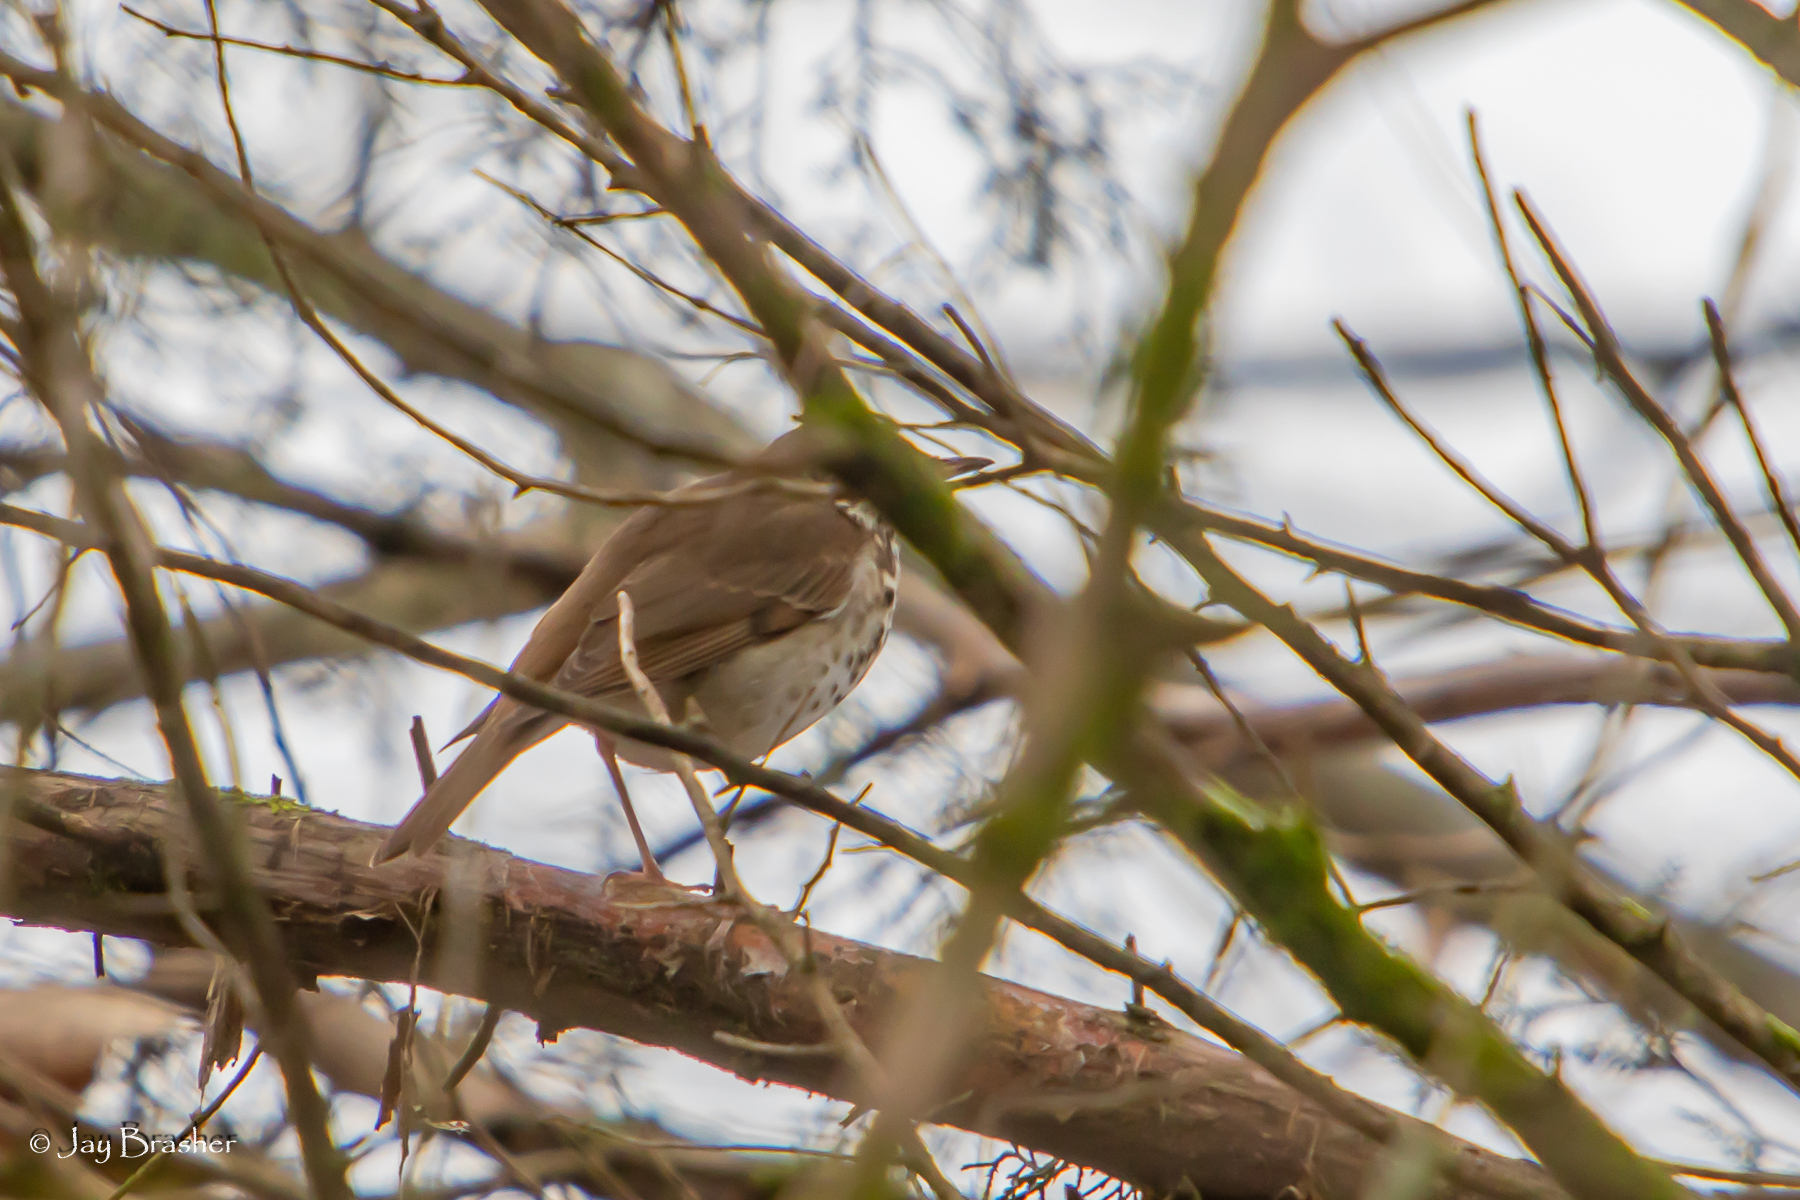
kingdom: Animalia
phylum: Chordata
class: Aves
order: Passeriformes
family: Turdidae
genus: Catharus
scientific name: Catharus guttatus
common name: Hermit thrush
